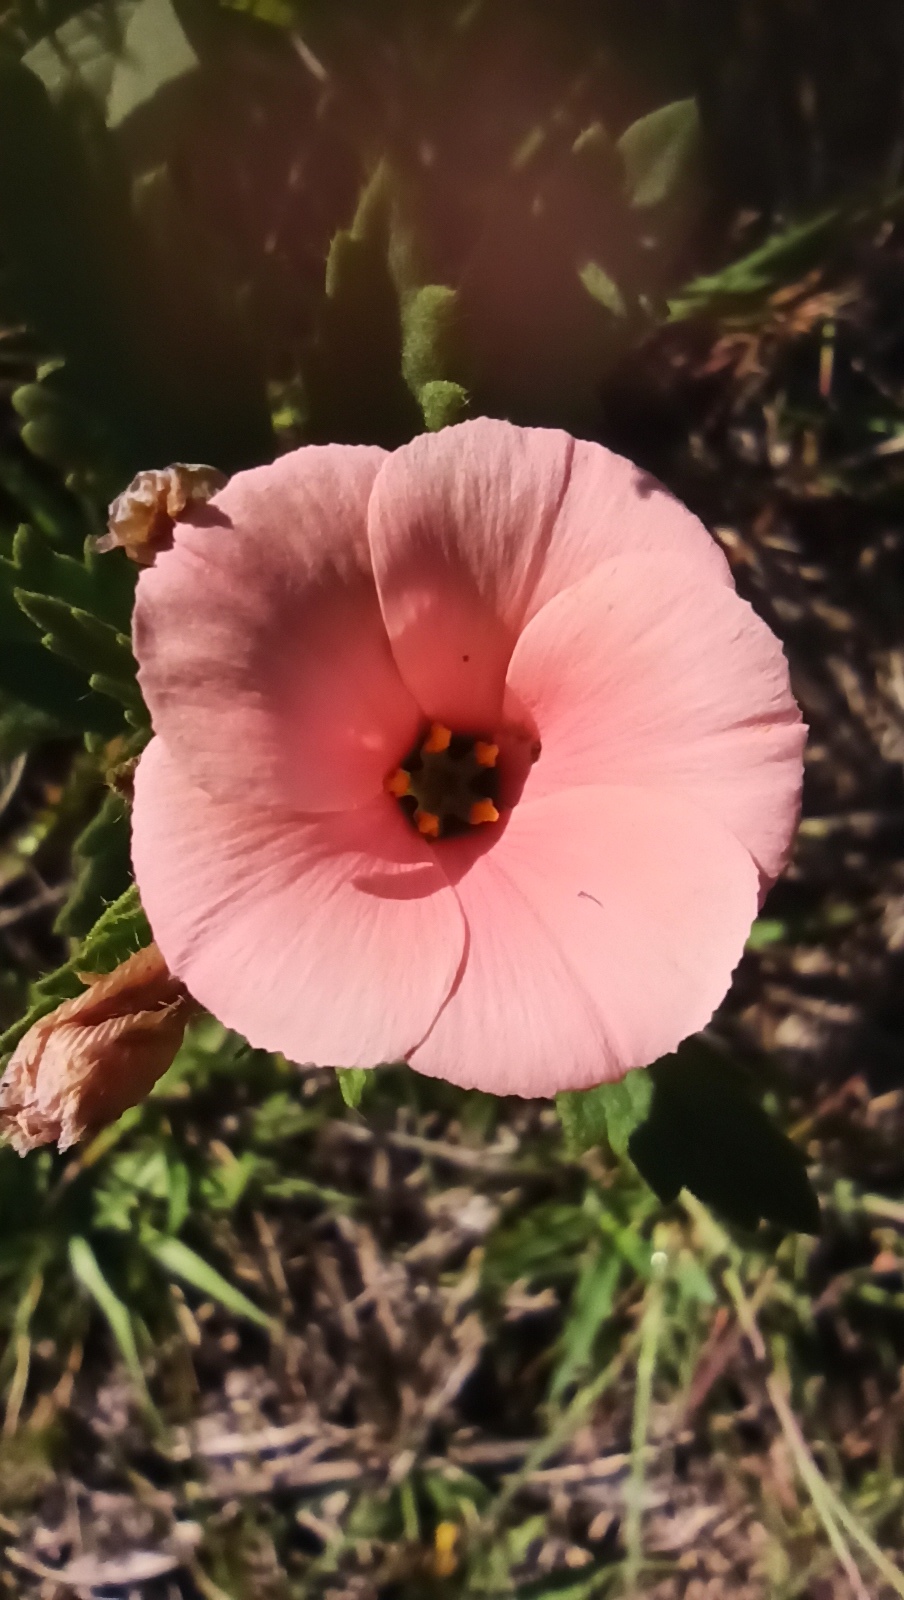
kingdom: Plantae
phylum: Tracheophyta
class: Magnoliopsida
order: Malpighiales
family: Turneraceae
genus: Turnera
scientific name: Turnera sidoides
